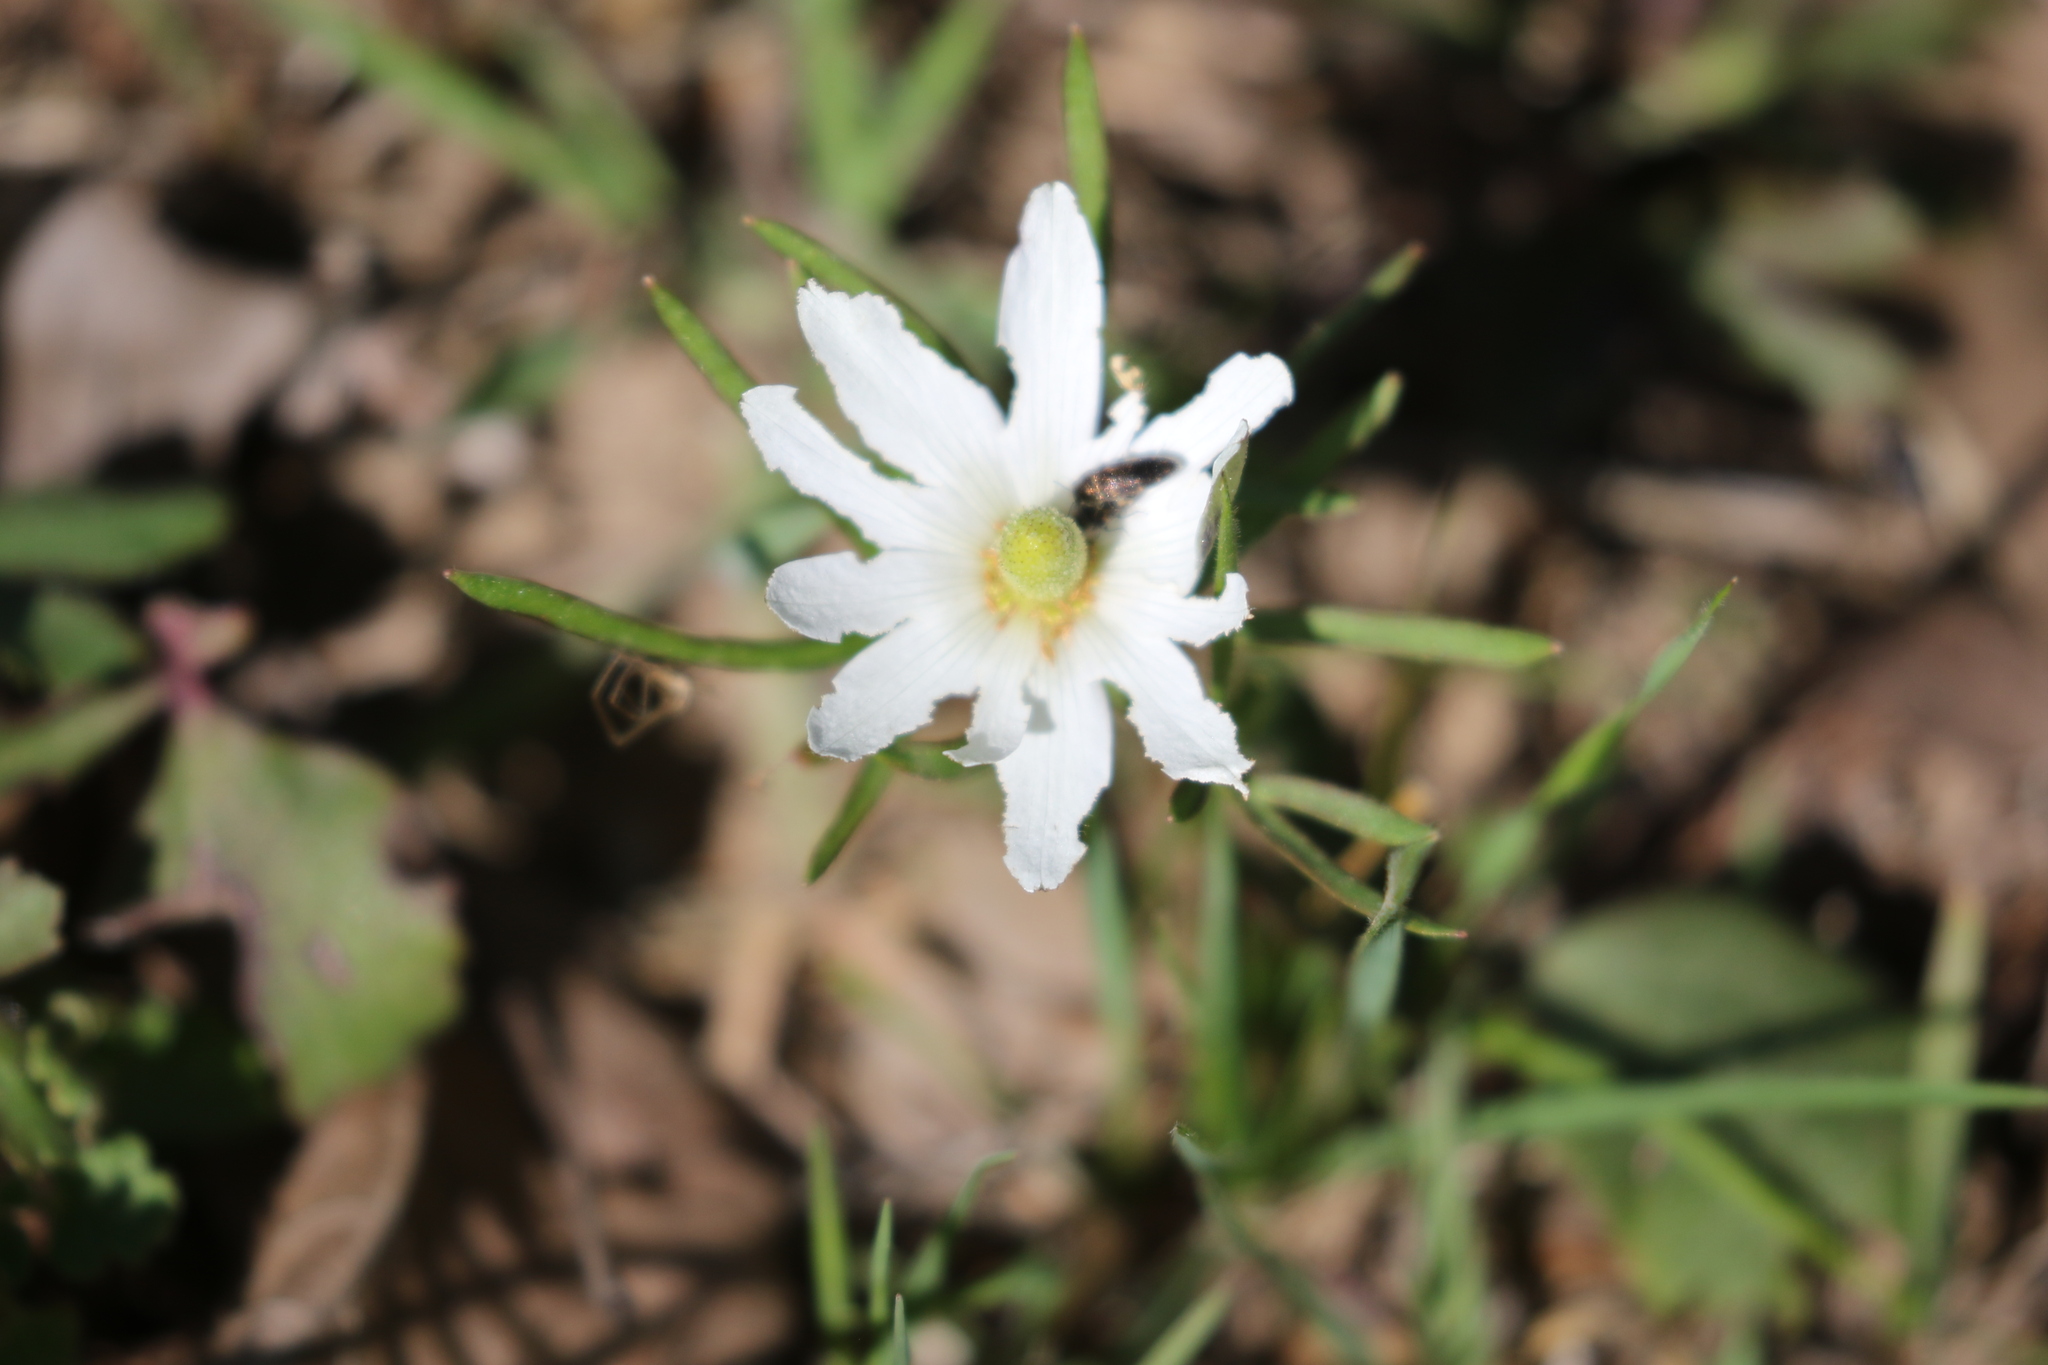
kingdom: Plantae
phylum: Tracheophyta
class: Magnoliopsida
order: Ranunculales
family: Ranunculaceae
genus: Anemone
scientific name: Anemone berlandieri
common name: Ten-petal anemone
